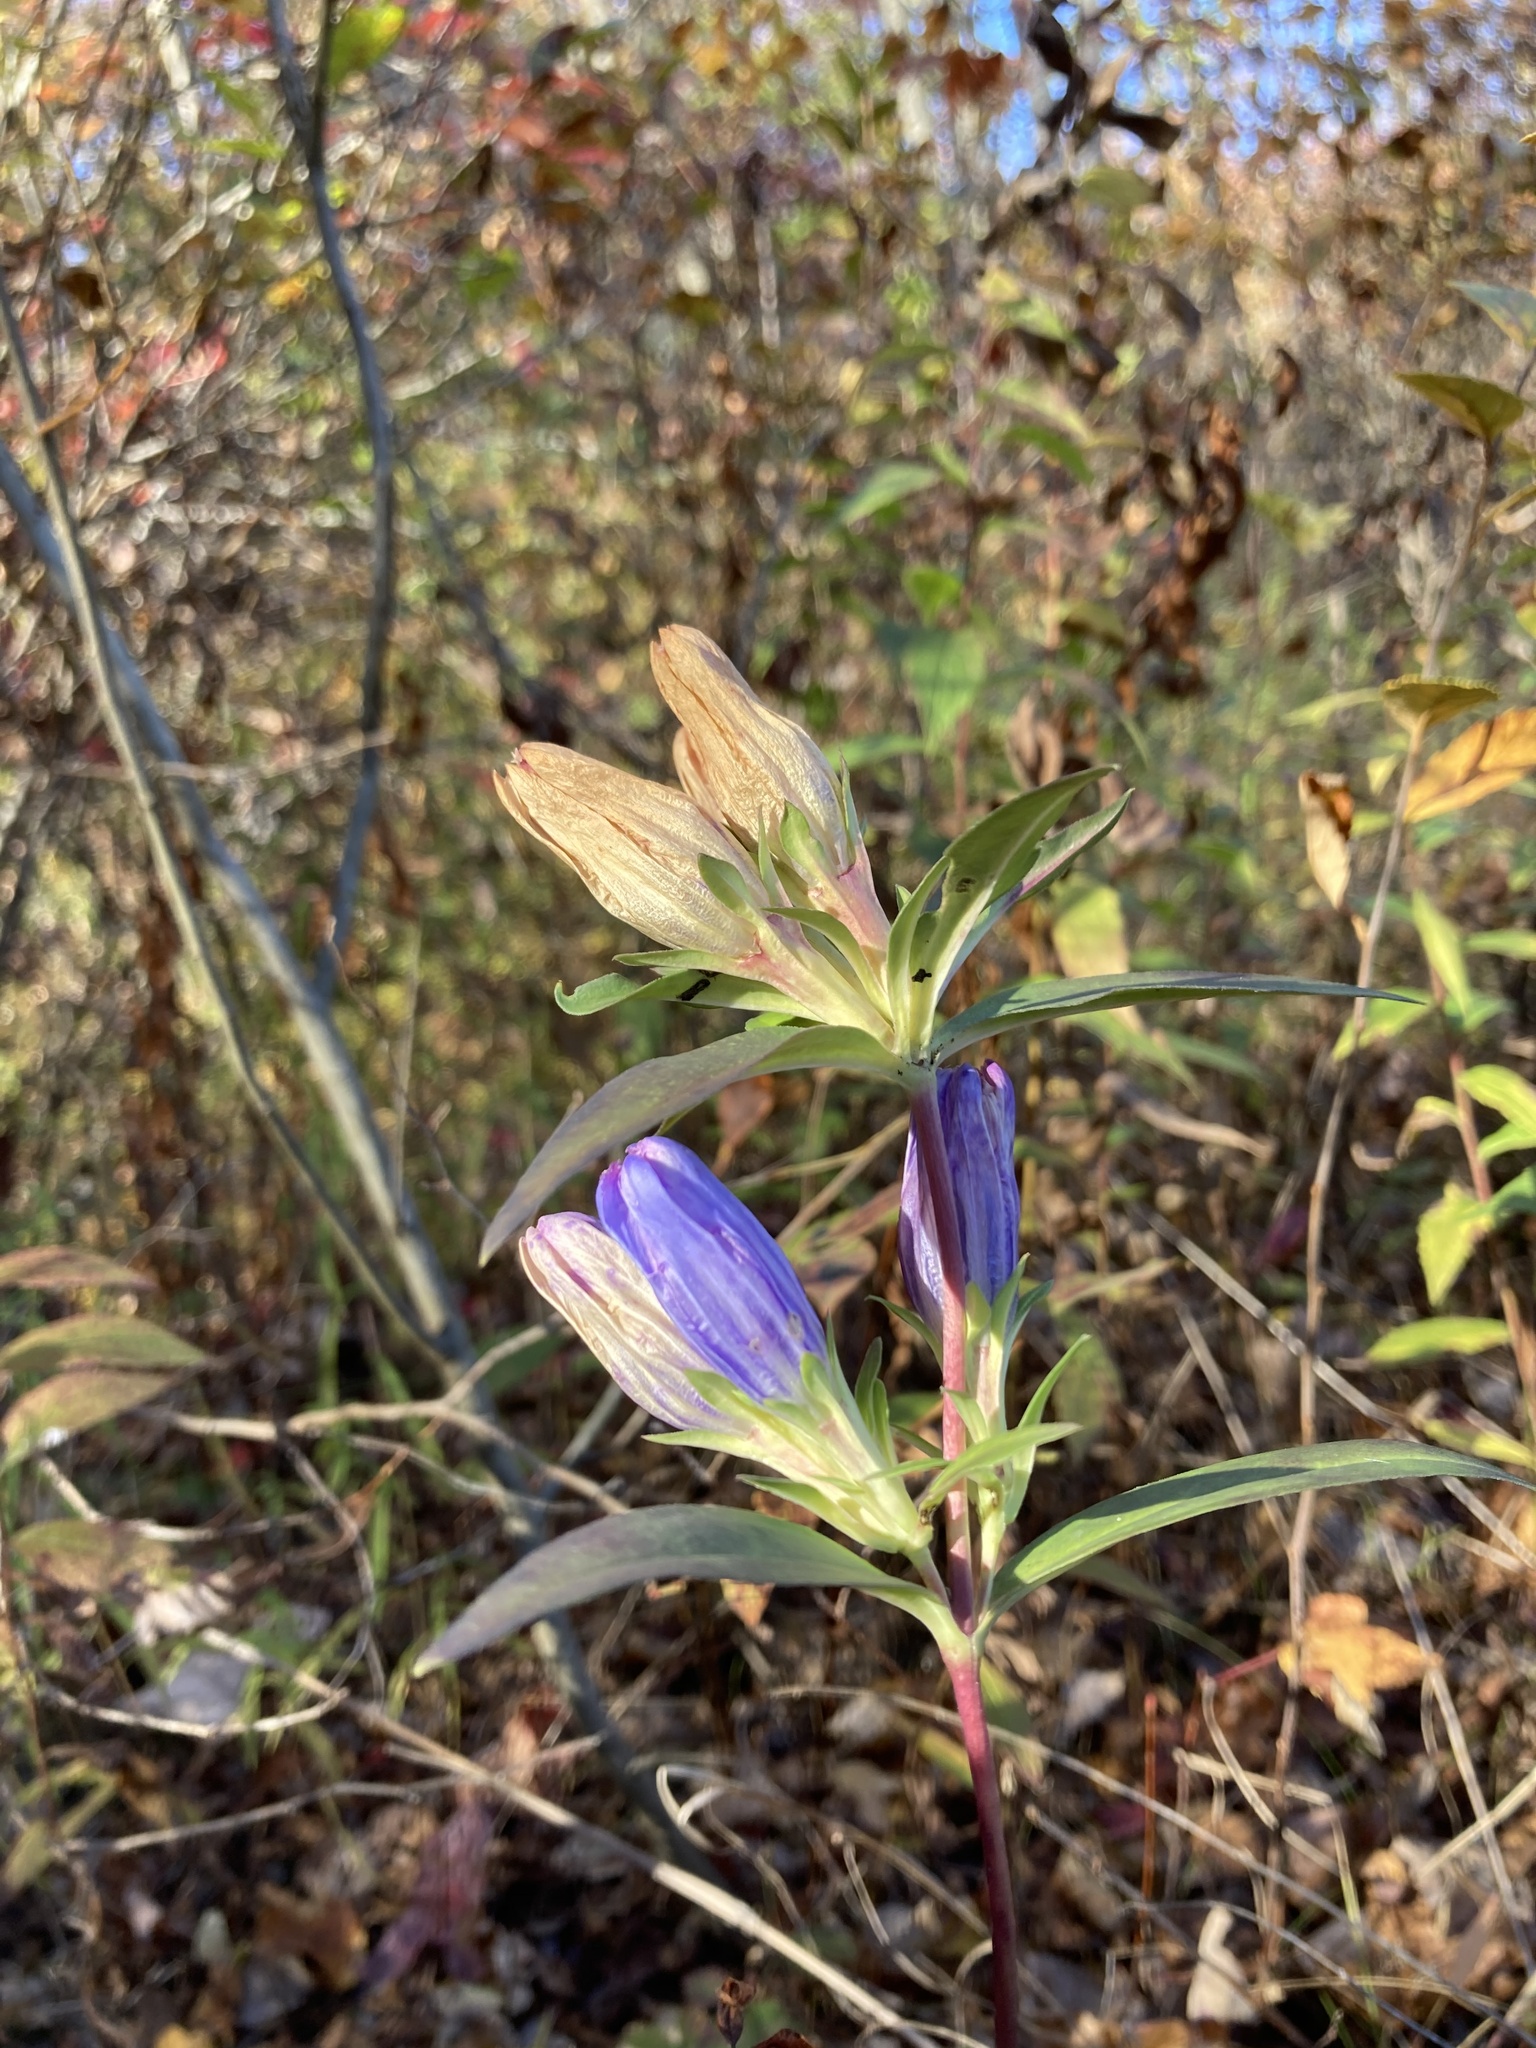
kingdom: Plantae
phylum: Tracheophyta
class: Magnoliopsida
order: Gentianales
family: Gentianaceae
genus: Gentiana
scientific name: Gentiana saponaria
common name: Soapwort gentian
